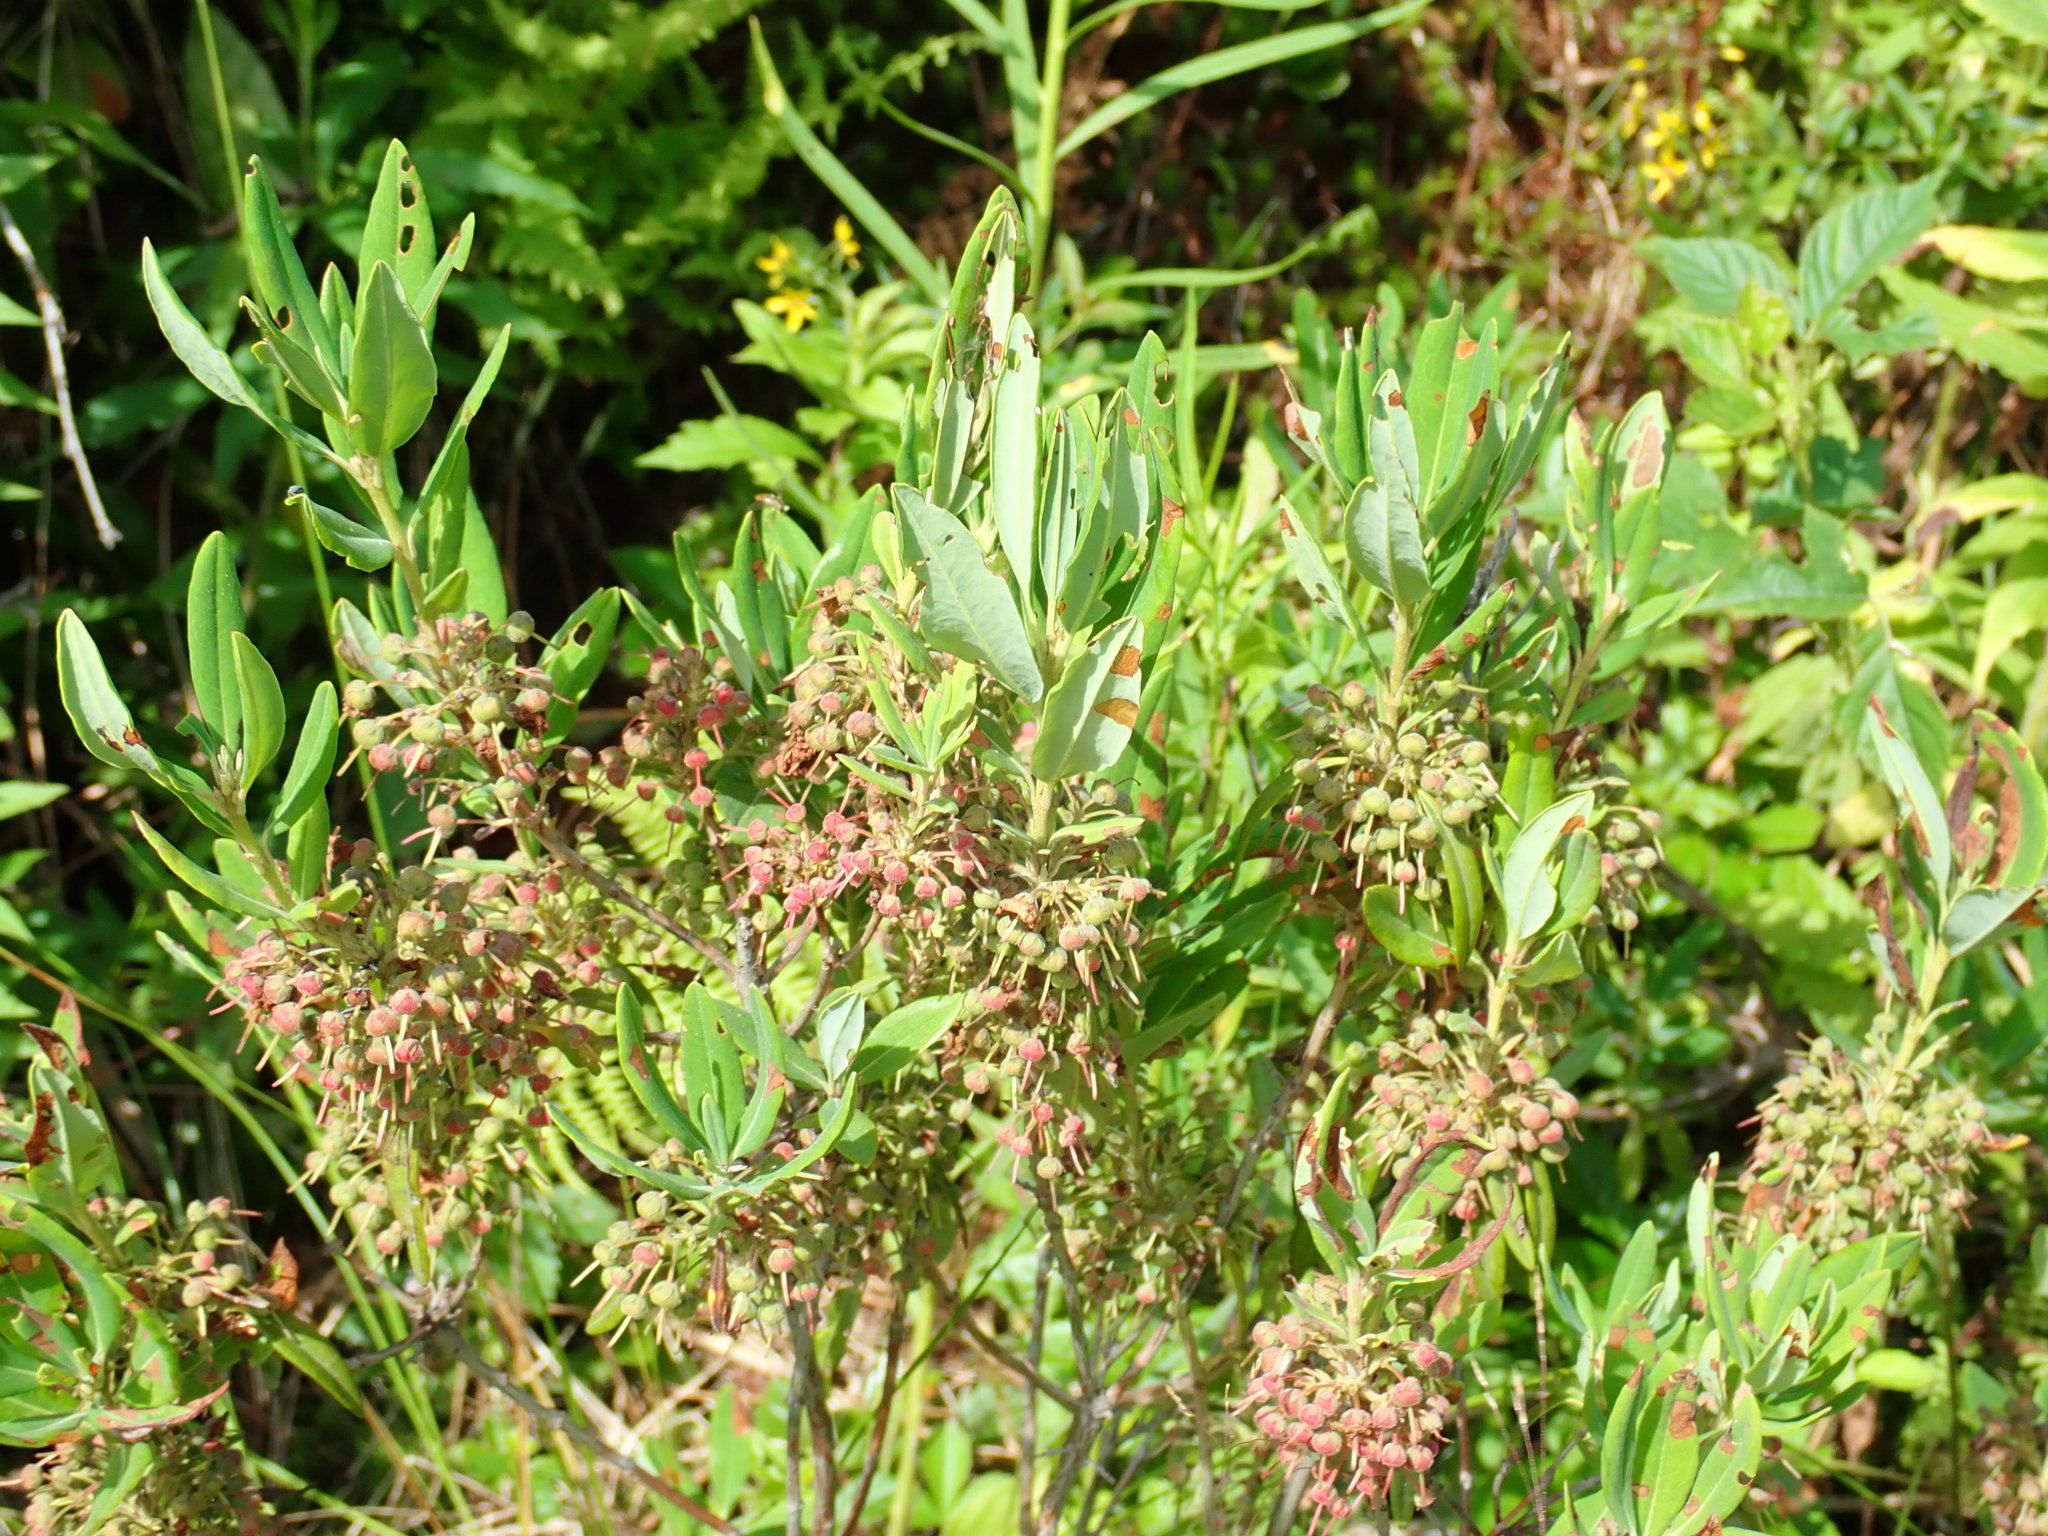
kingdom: Plantae
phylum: Tracheophyta
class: Magnoliopsida
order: Ericales
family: Ericaceae
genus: Kalmia
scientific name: Kalmia angustifolia
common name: Sheep-laurel
